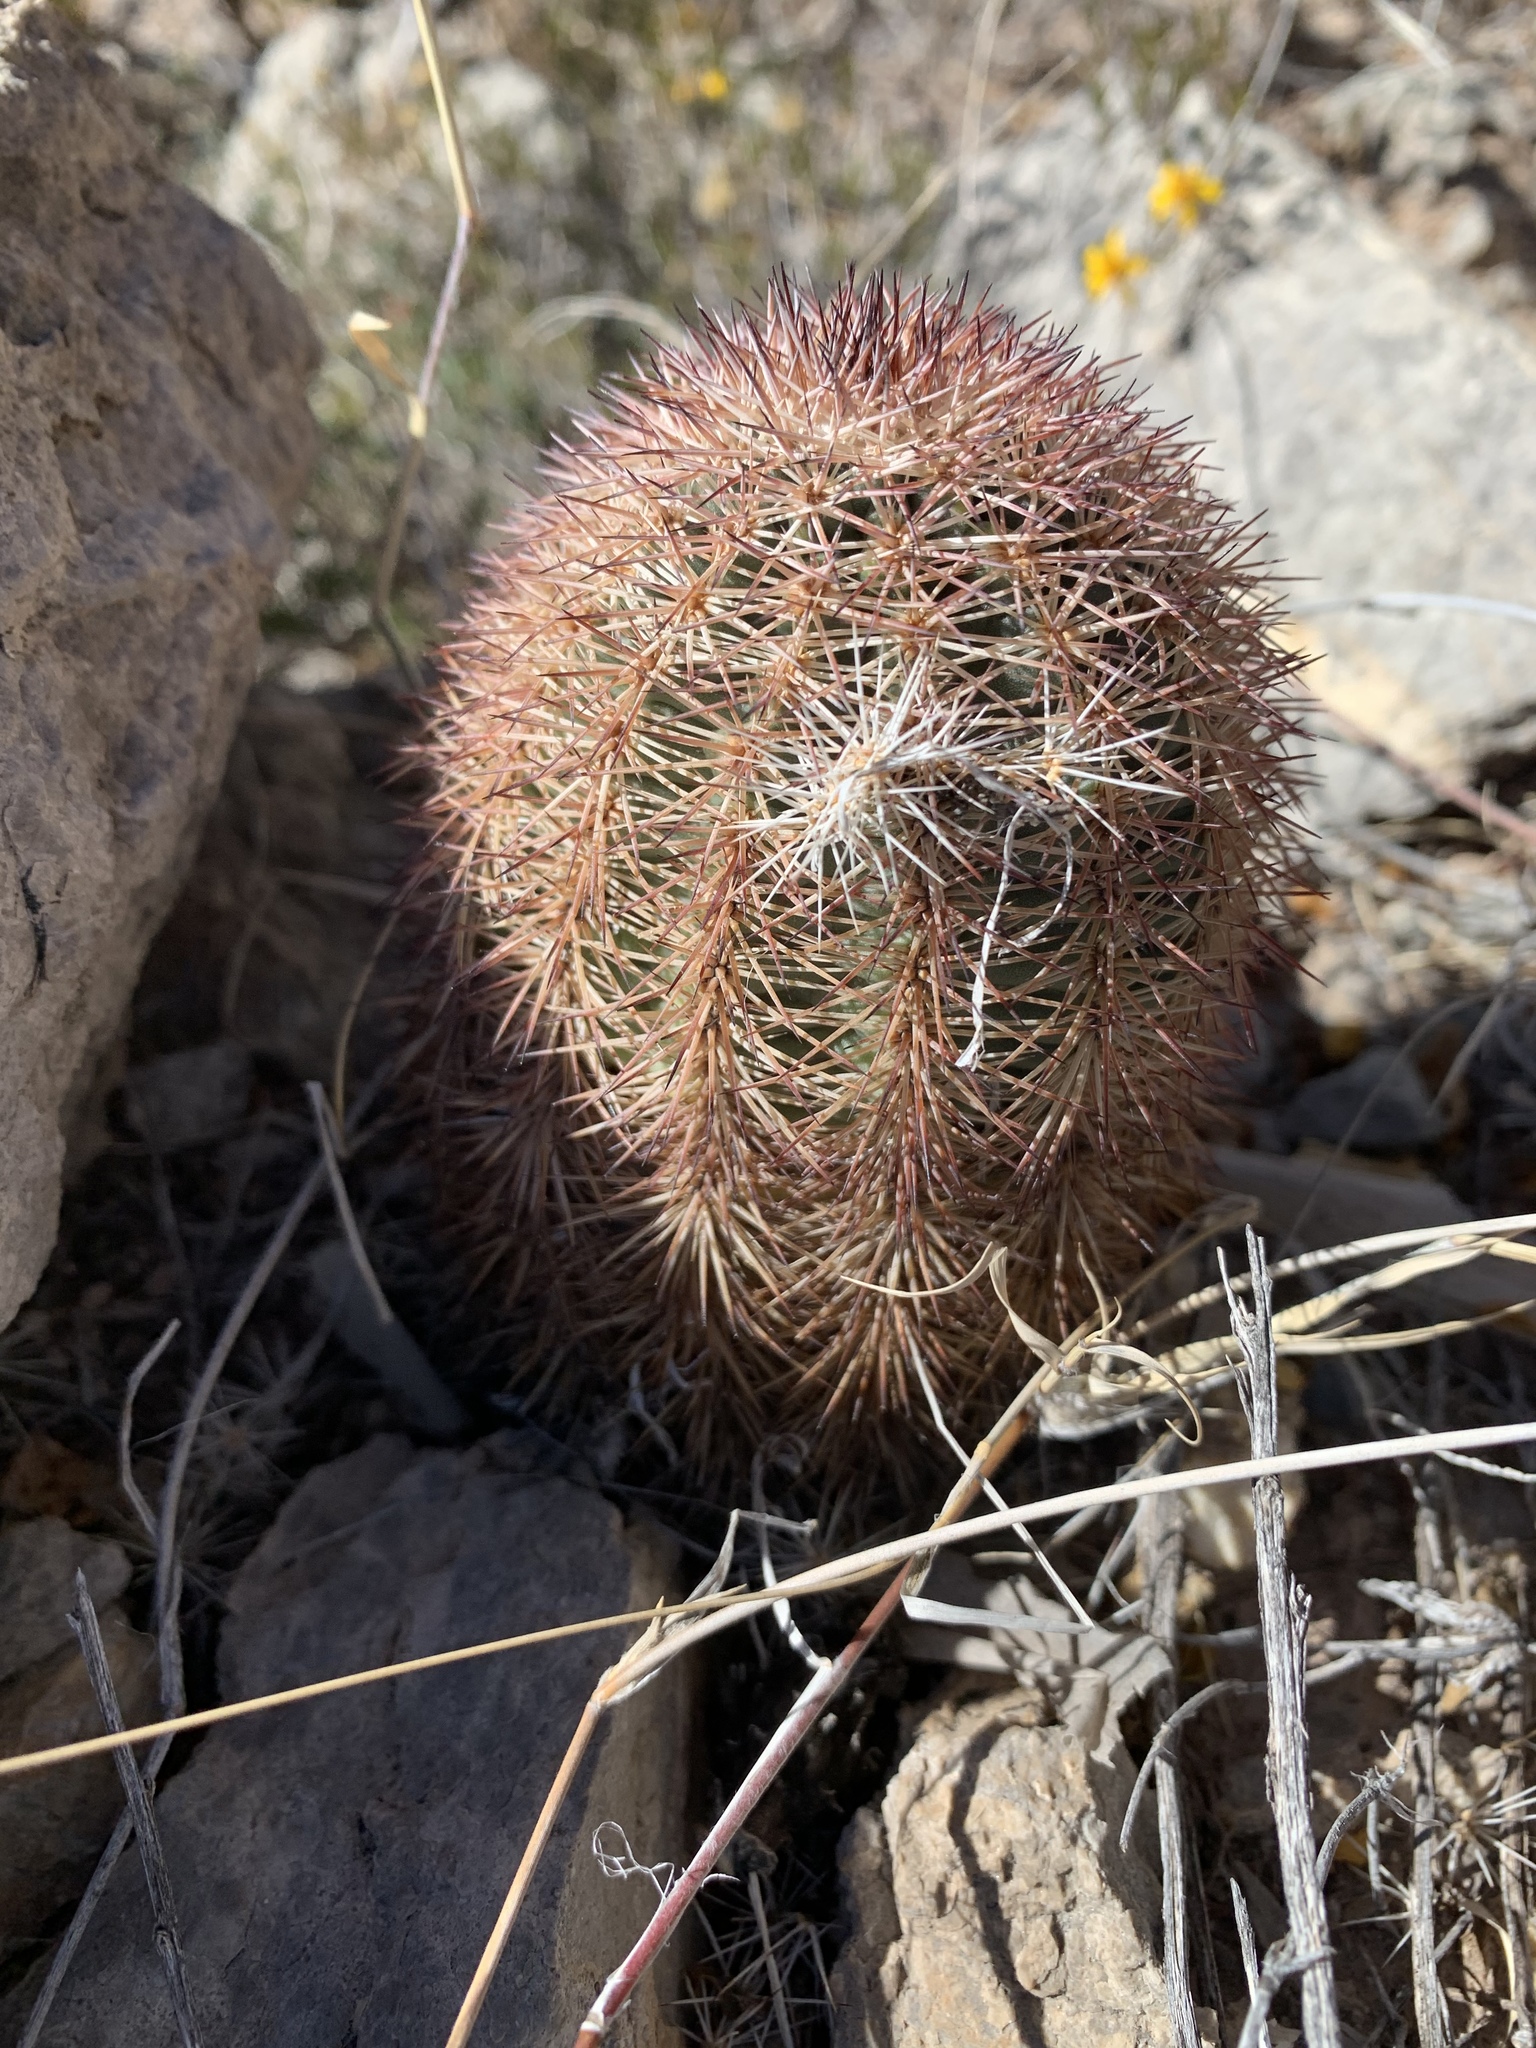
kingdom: Plantae
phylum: Tracheophyta
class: Magnoliopsida
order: Caryophyllales
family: Cactaceae
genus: Echinocereus
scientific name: Echinocereus dasyacanthus
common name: Spiny hedgehog cactus
